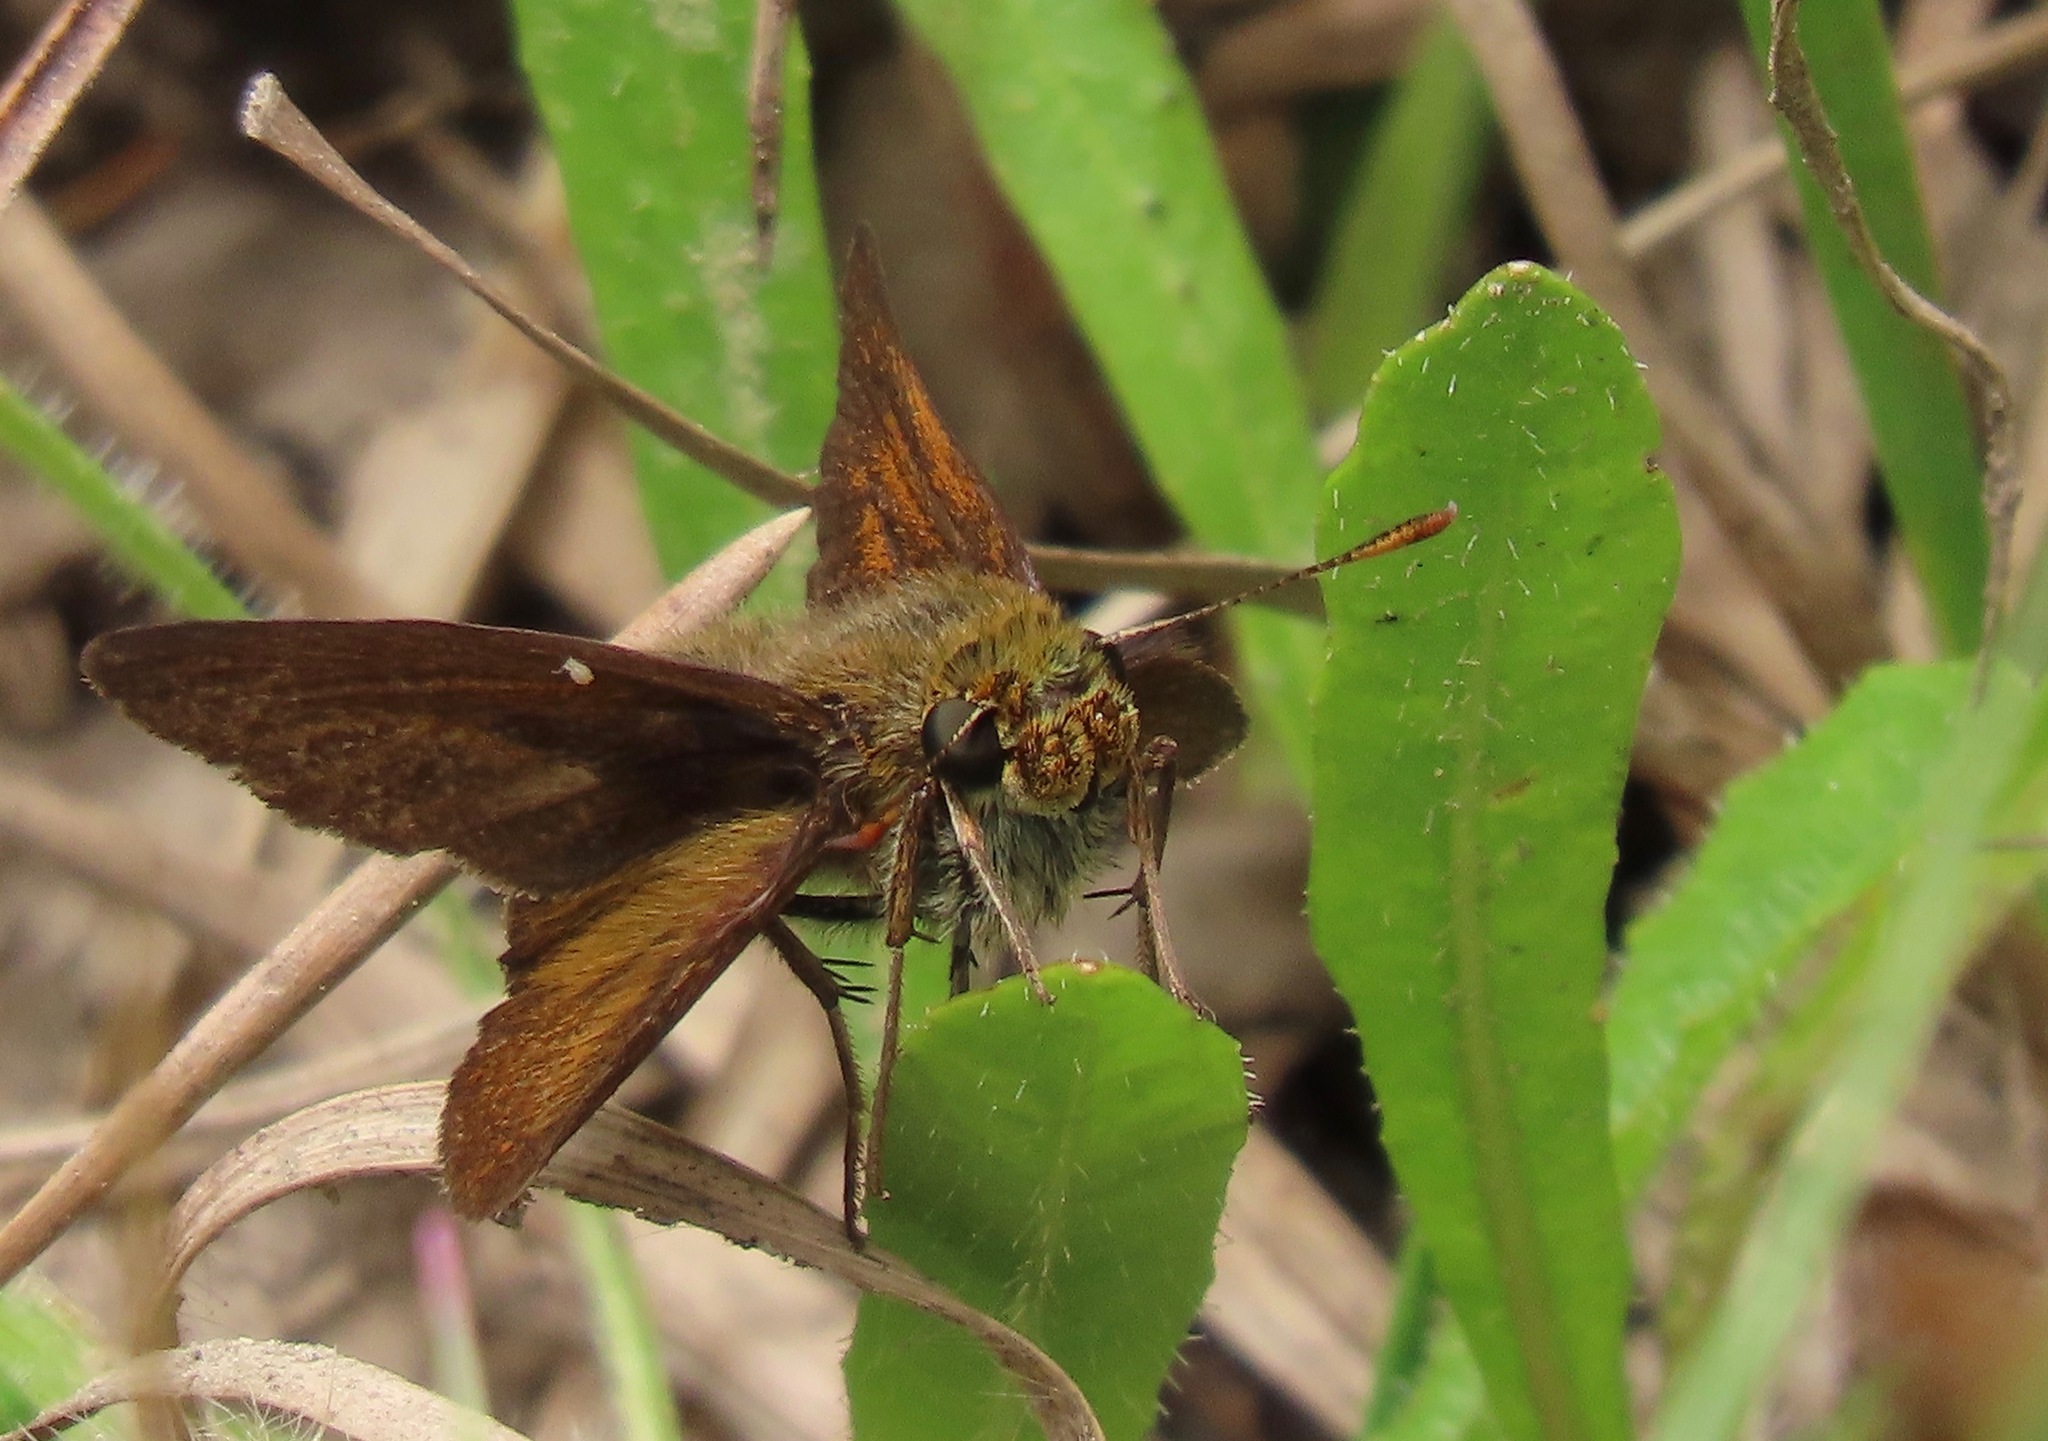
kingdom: Animalia
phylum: Arthropoda
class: Insecta
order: Lepidoptera
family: Hesperiidae
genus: Euphyes
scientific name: Euphyes vestris
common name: Dun skipper
